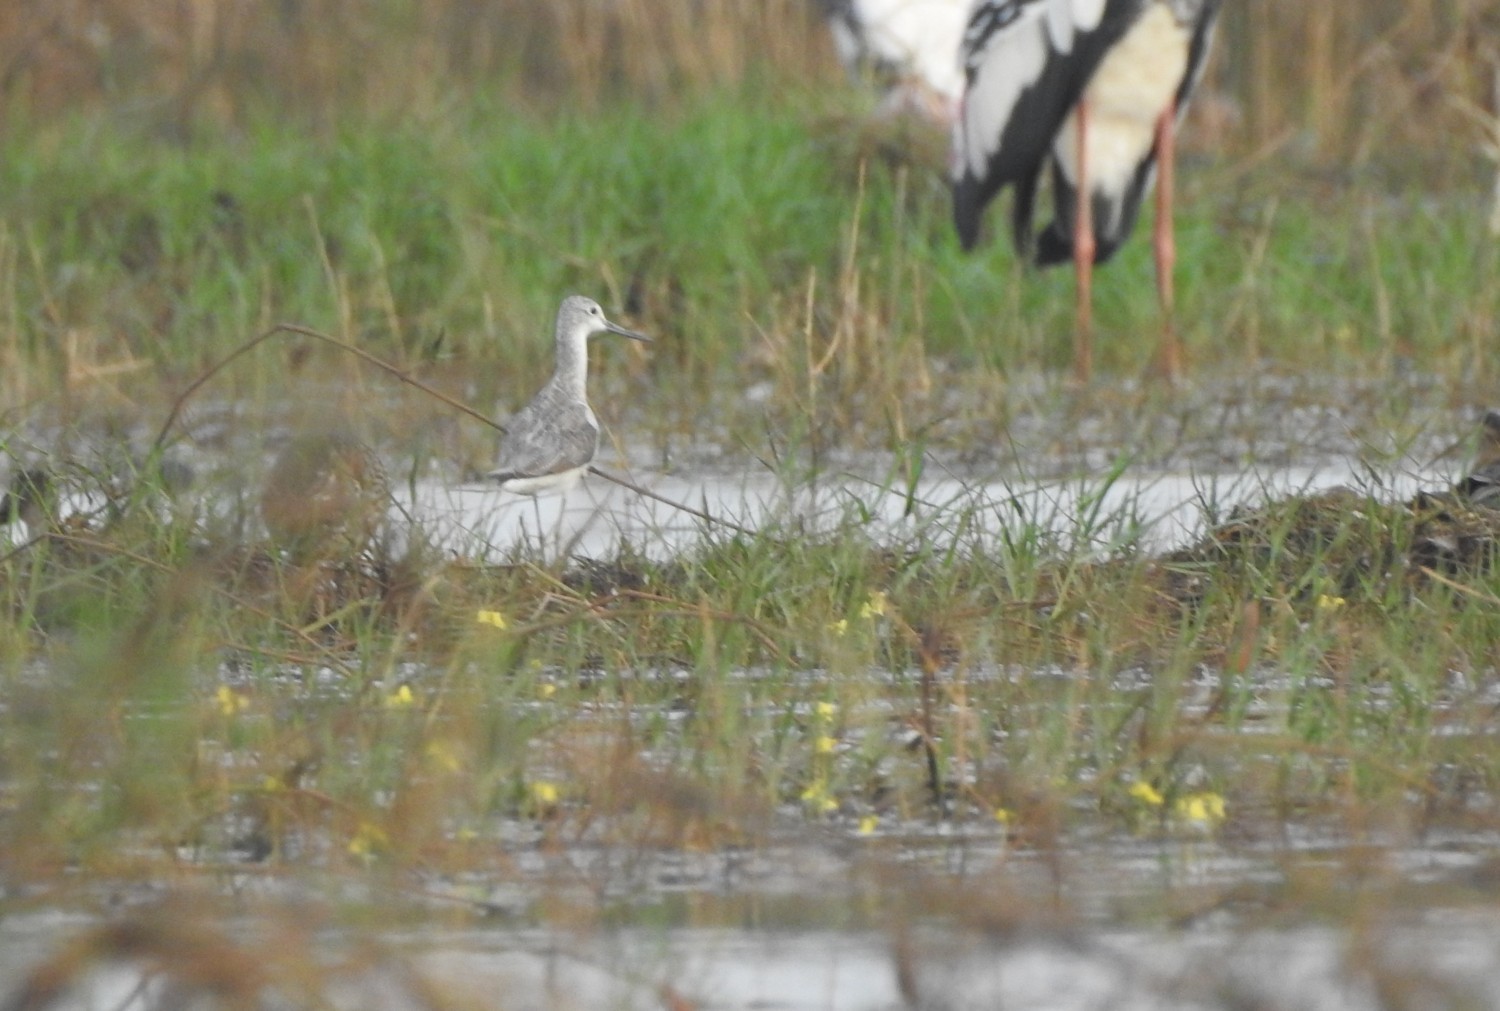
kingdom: Animalia
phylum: Chordata
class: Aves
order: Charadriiformes
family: Scolopacidae
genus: Tringa
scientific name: Tringa nebularia
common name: Common greenshank
